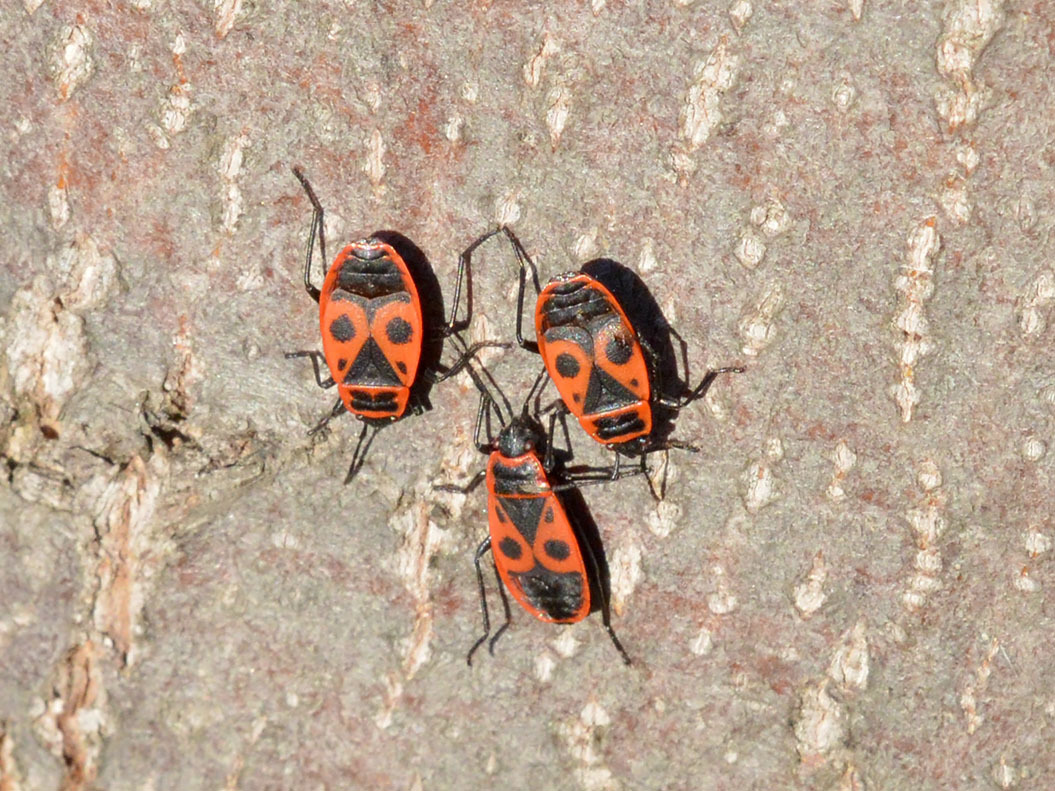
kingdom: Animalia
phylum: Arthropoda
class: Insecta
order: Hemiptera
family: Pyrrhocoridae
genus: Pyrrhocoris
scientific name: Pyrrhocoris apterus
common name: Firebug
